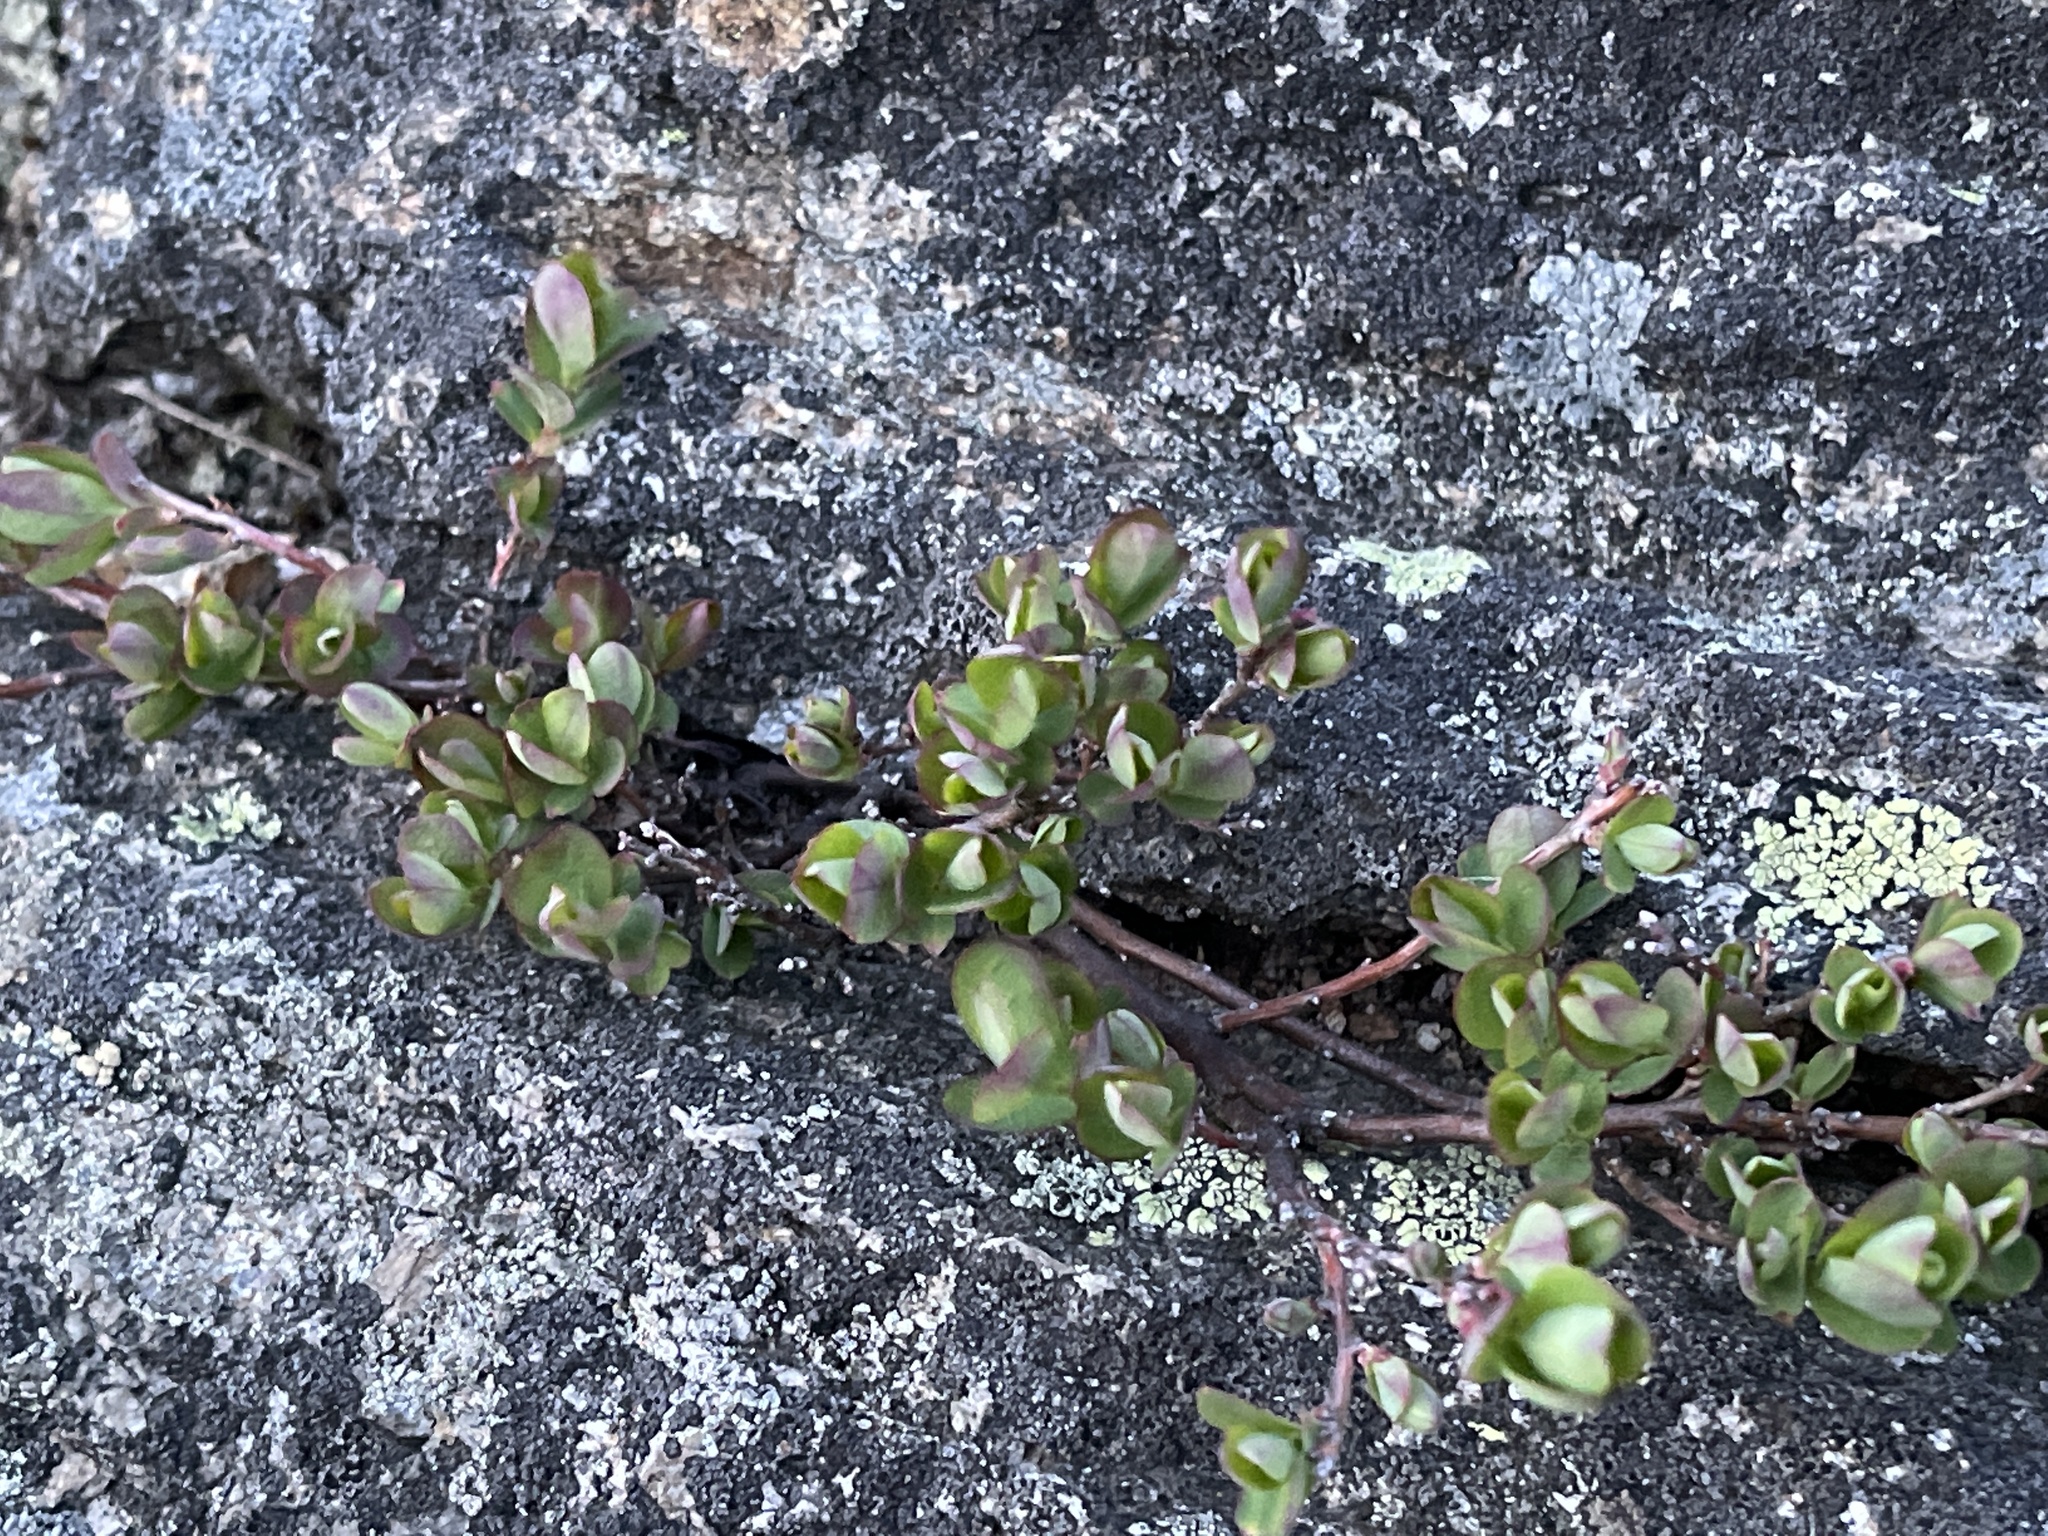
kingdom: Plantae
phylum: Tracheophyta
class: Magnoliopsida
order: Ericales
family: Ericaceae
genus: Vaccinium
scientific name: Vaccinium uliginosum
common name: Bog bilberry
